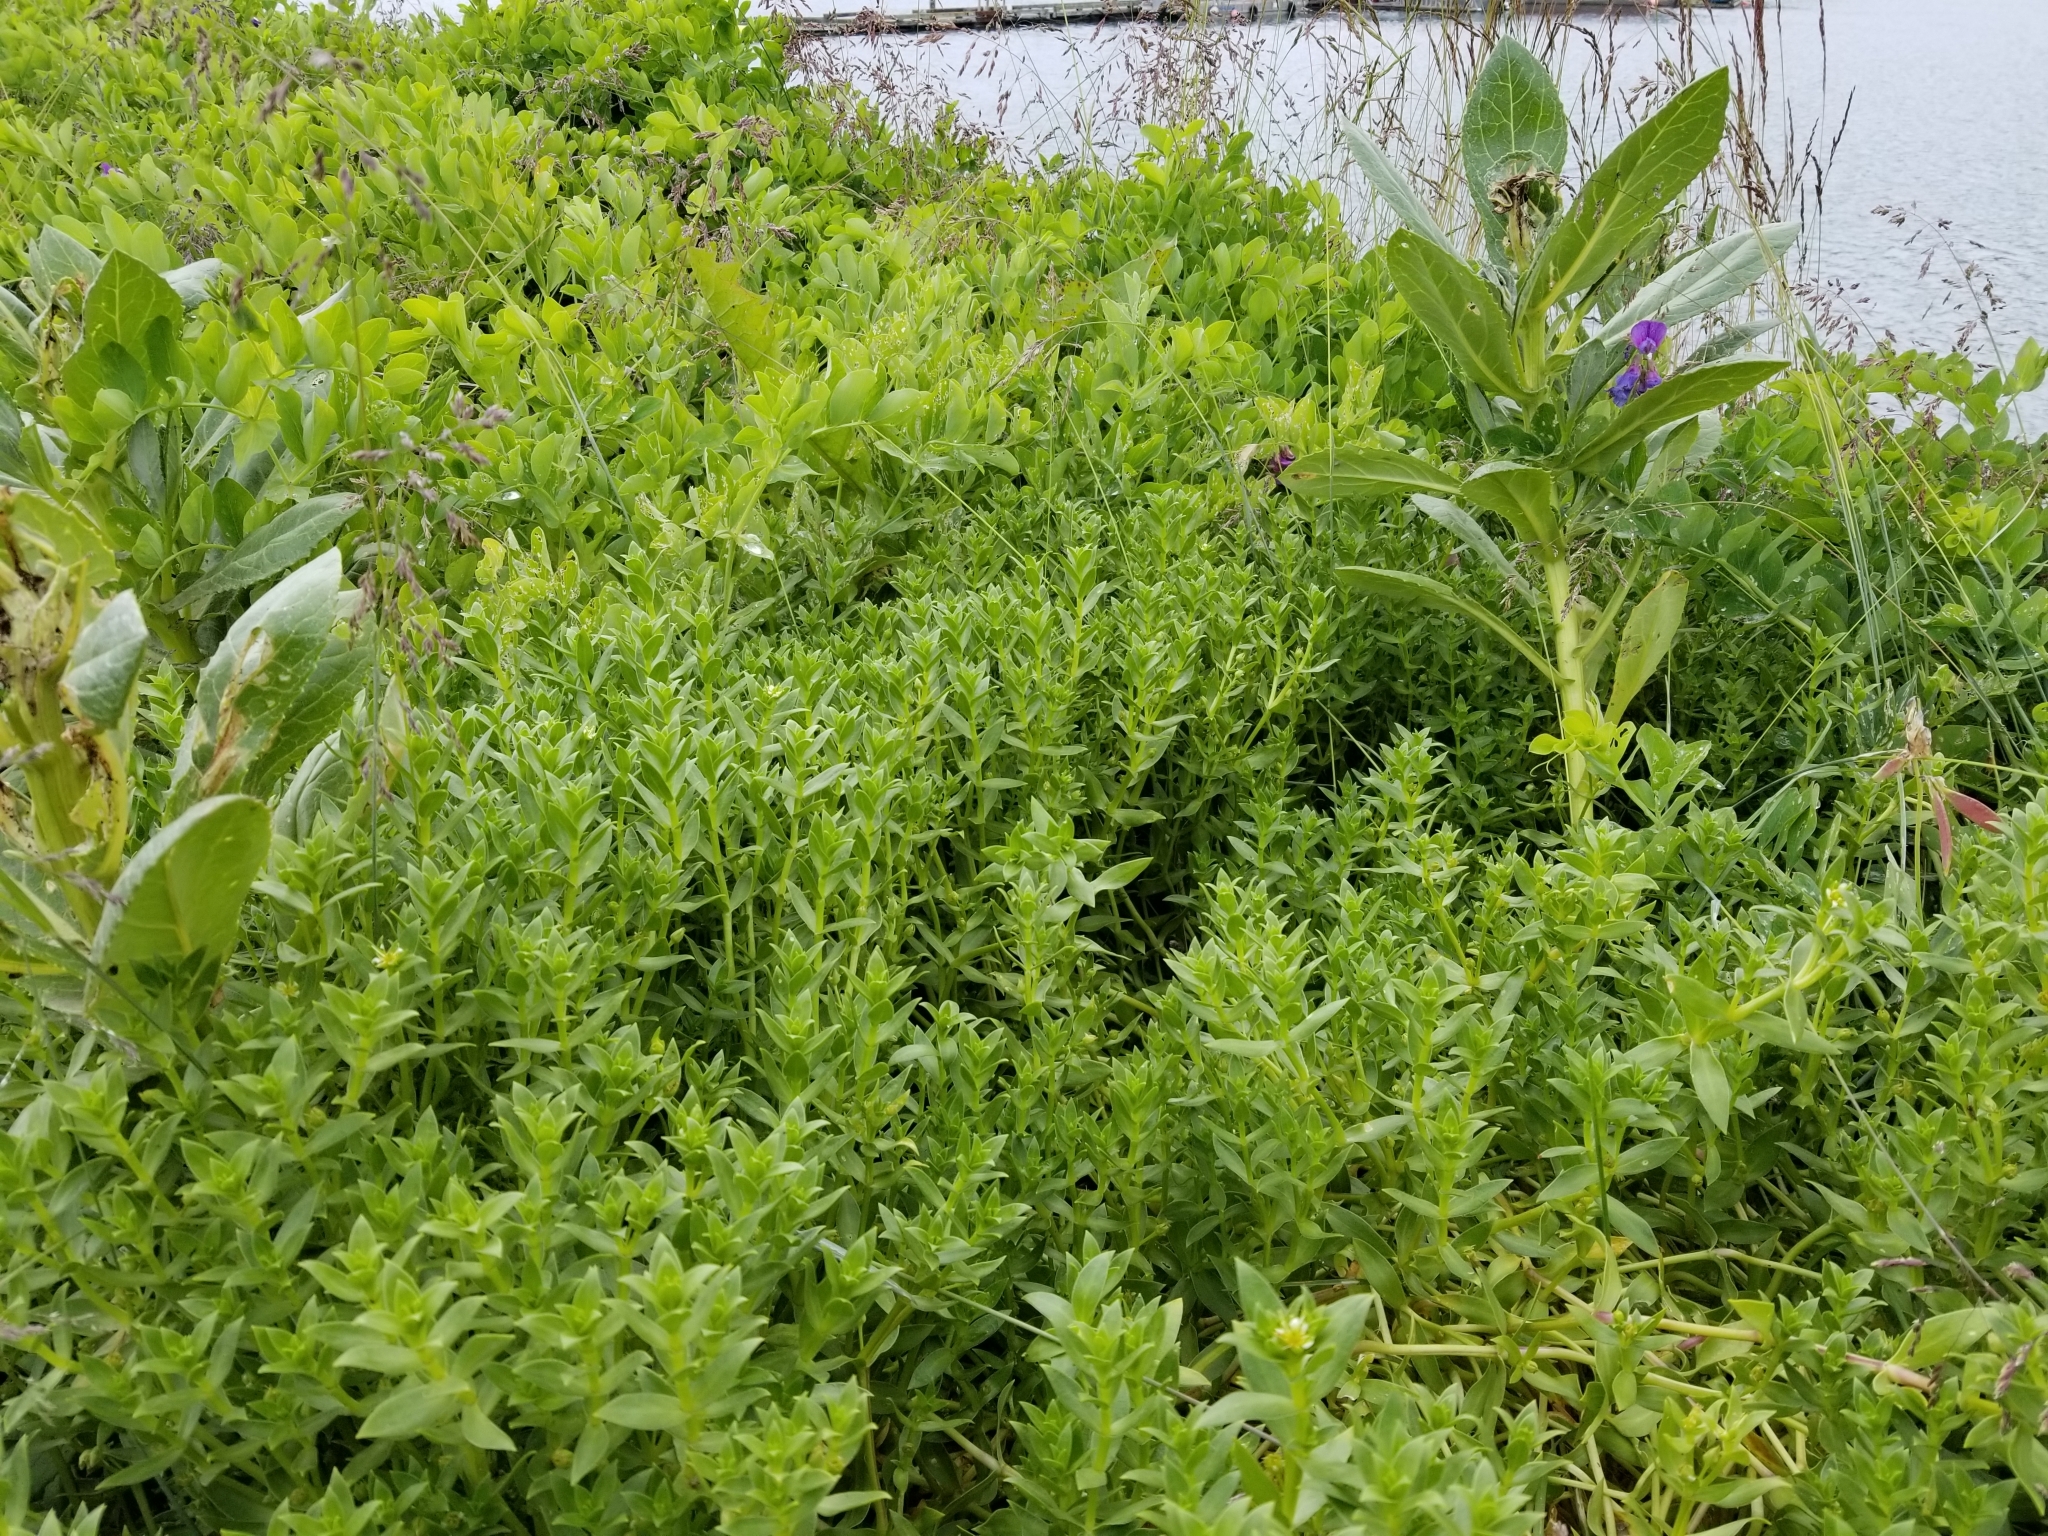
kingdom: Plantae
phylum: Tracheophyta
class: Magnoliopsida
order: Caryophyllales
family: Caryophyllaceae
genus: Honckenya
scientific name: Honckenya peploides
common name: Sea sandwort
